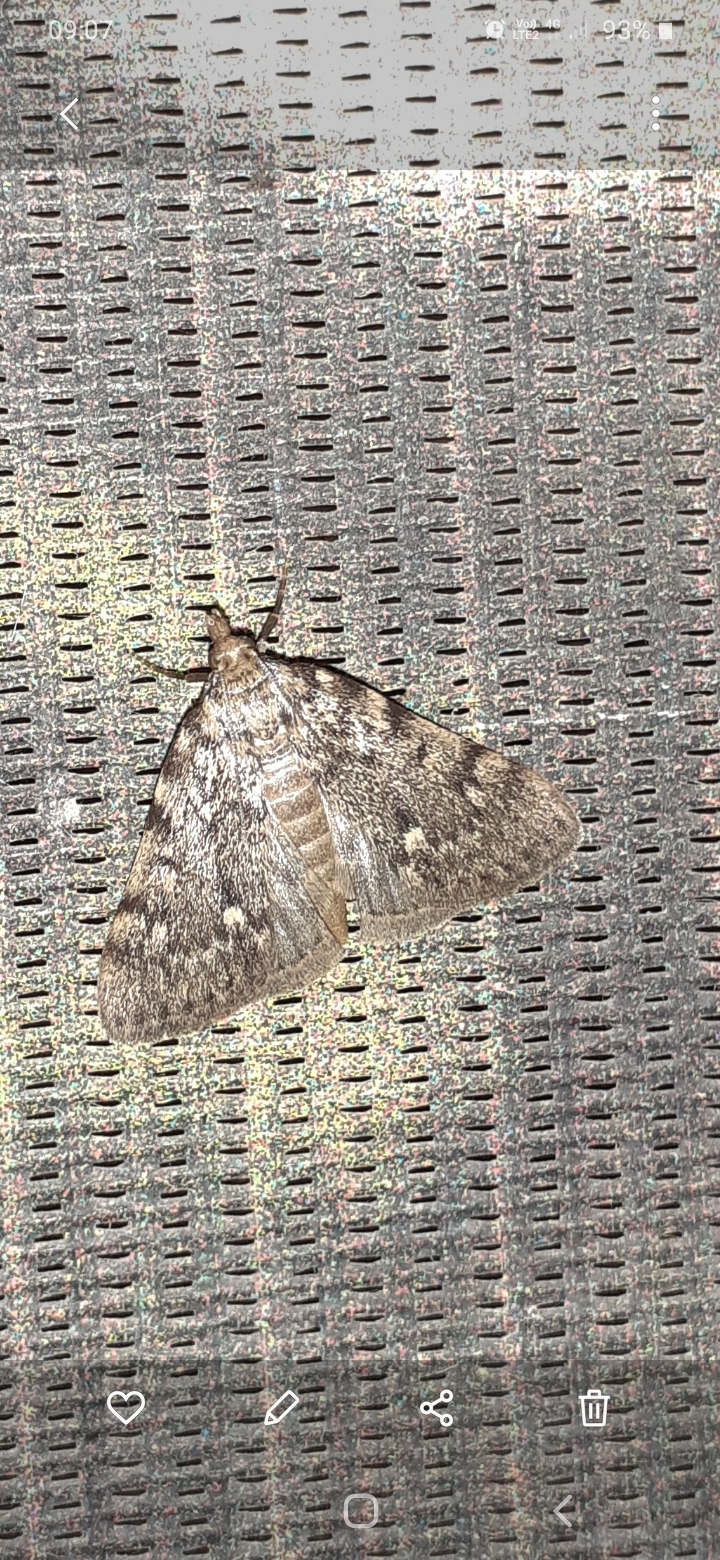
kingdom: Animalia
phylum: Arthropoda
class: Insecta
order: Lepidoptera
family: Pyralidae
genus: Aglossa
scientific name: Aglossa pinguinalis
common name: Large tabby
